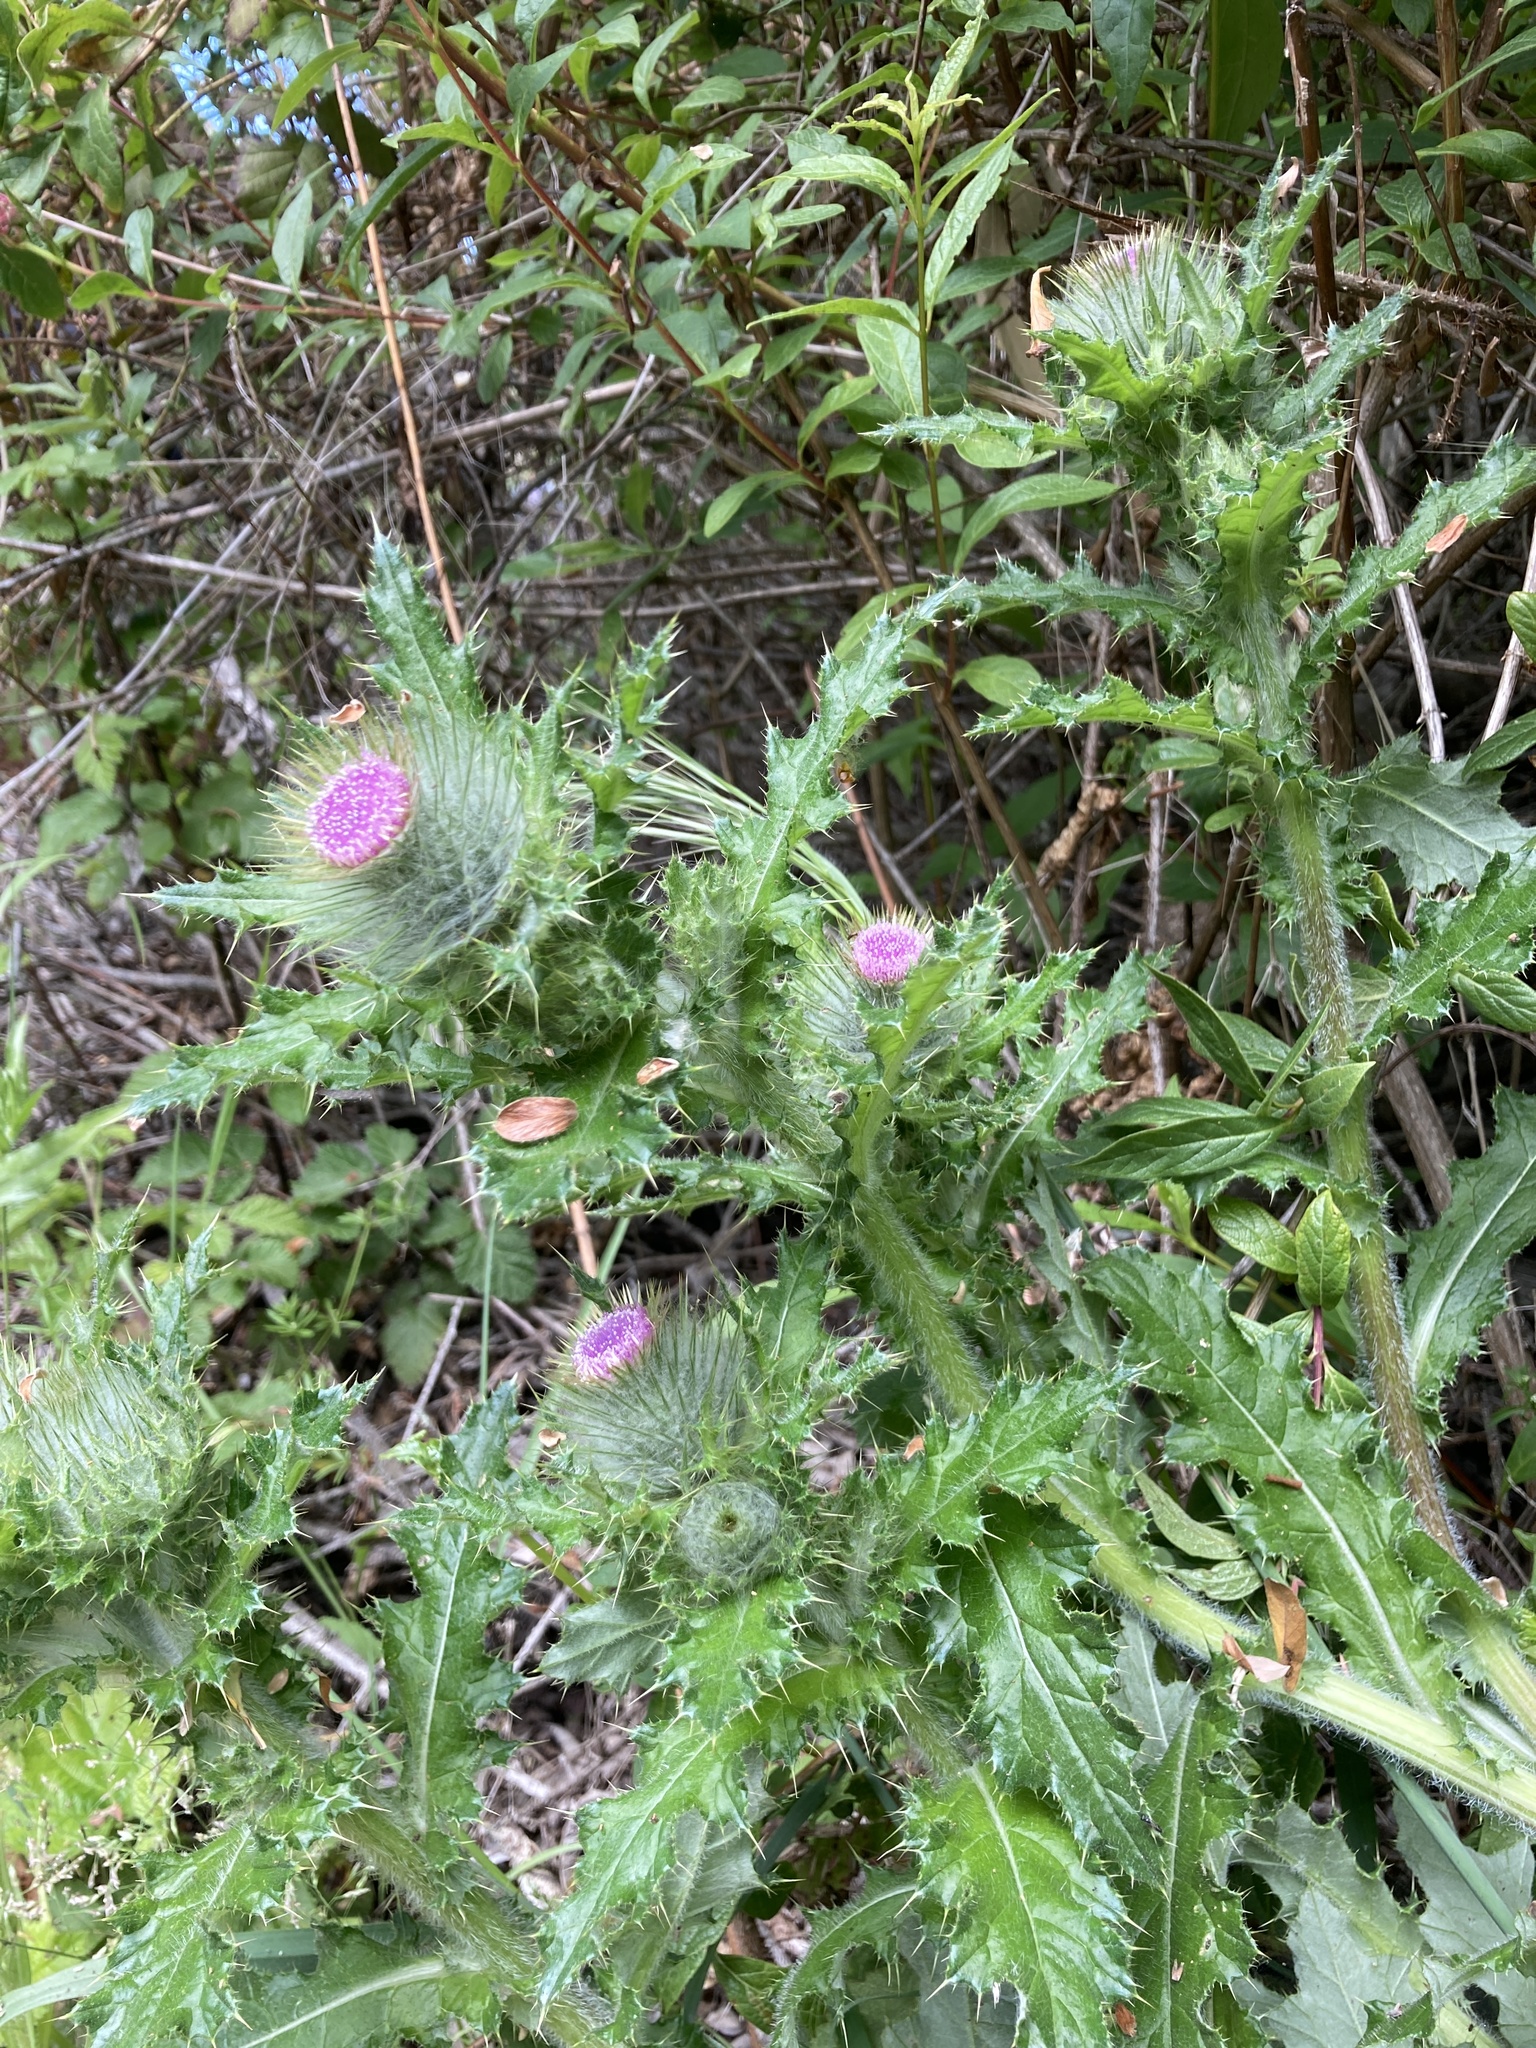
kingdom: Plantae
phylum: Tracheophyta
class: Magnoliopsida
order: Asterales
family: Asteraceae
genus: Cirsium
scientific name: Cirsium brevistylum
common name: Indian thistle
